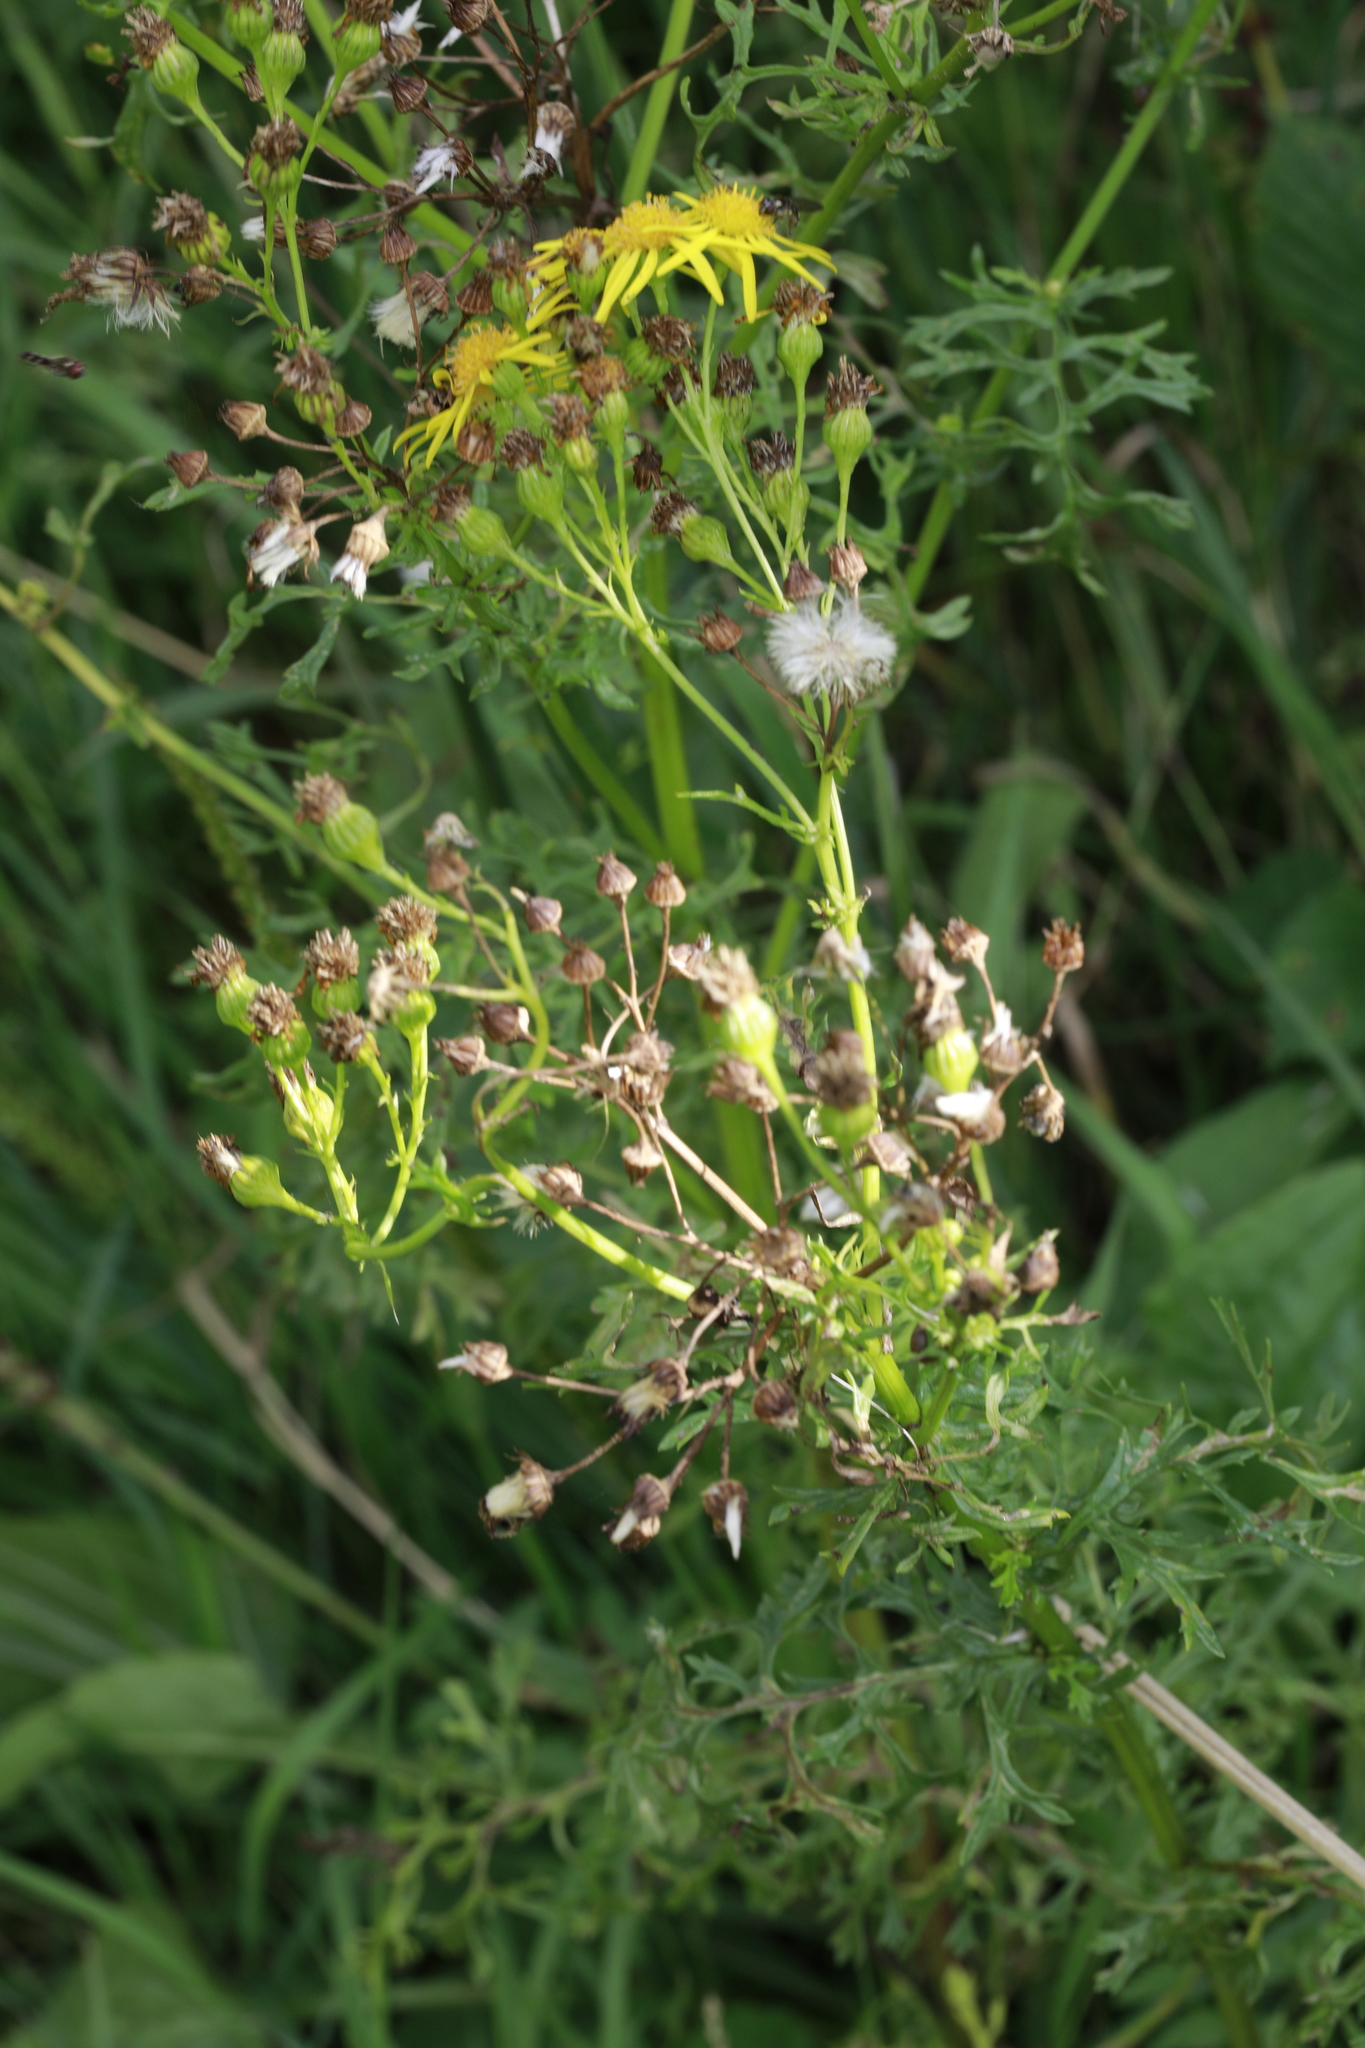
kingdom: Plantae
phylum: Tracheophyta
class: Magnoliopsida
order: Asterales
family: Asteraceae
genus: Jacobaea
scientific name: Jacobaea vulgaris
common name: Stinking willie
